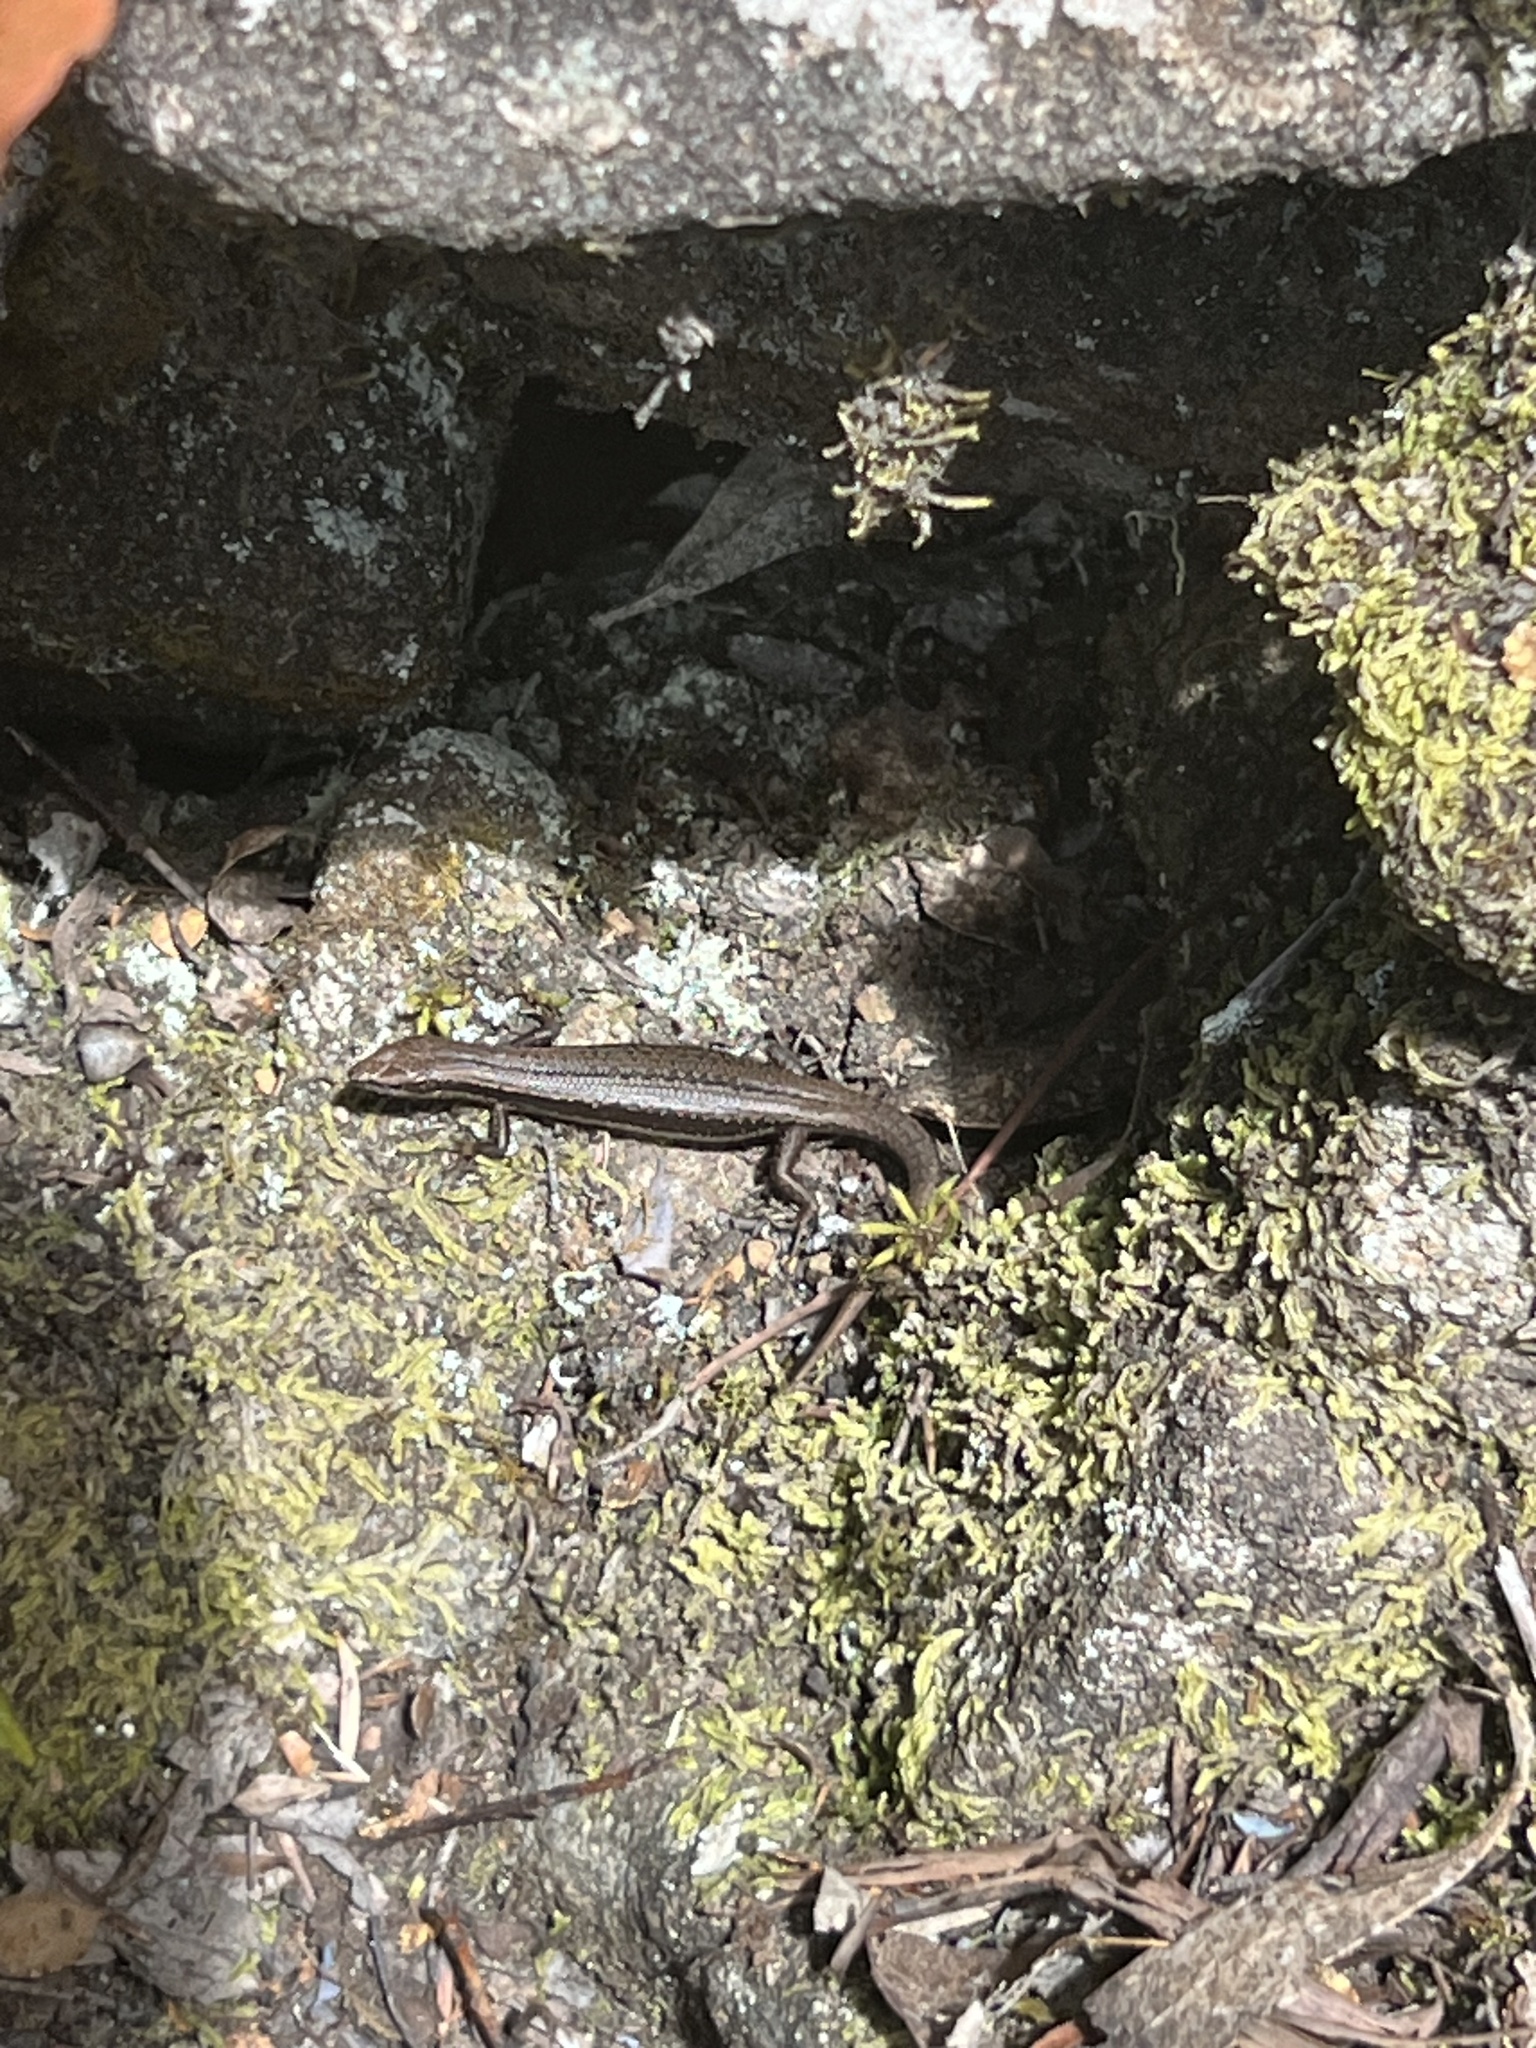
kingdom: Animalia
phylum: Chordata
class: Squamata
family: Scincidae
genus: Carinascincus
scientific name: Carinascincus pretiosus
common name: Agile cool-skink
